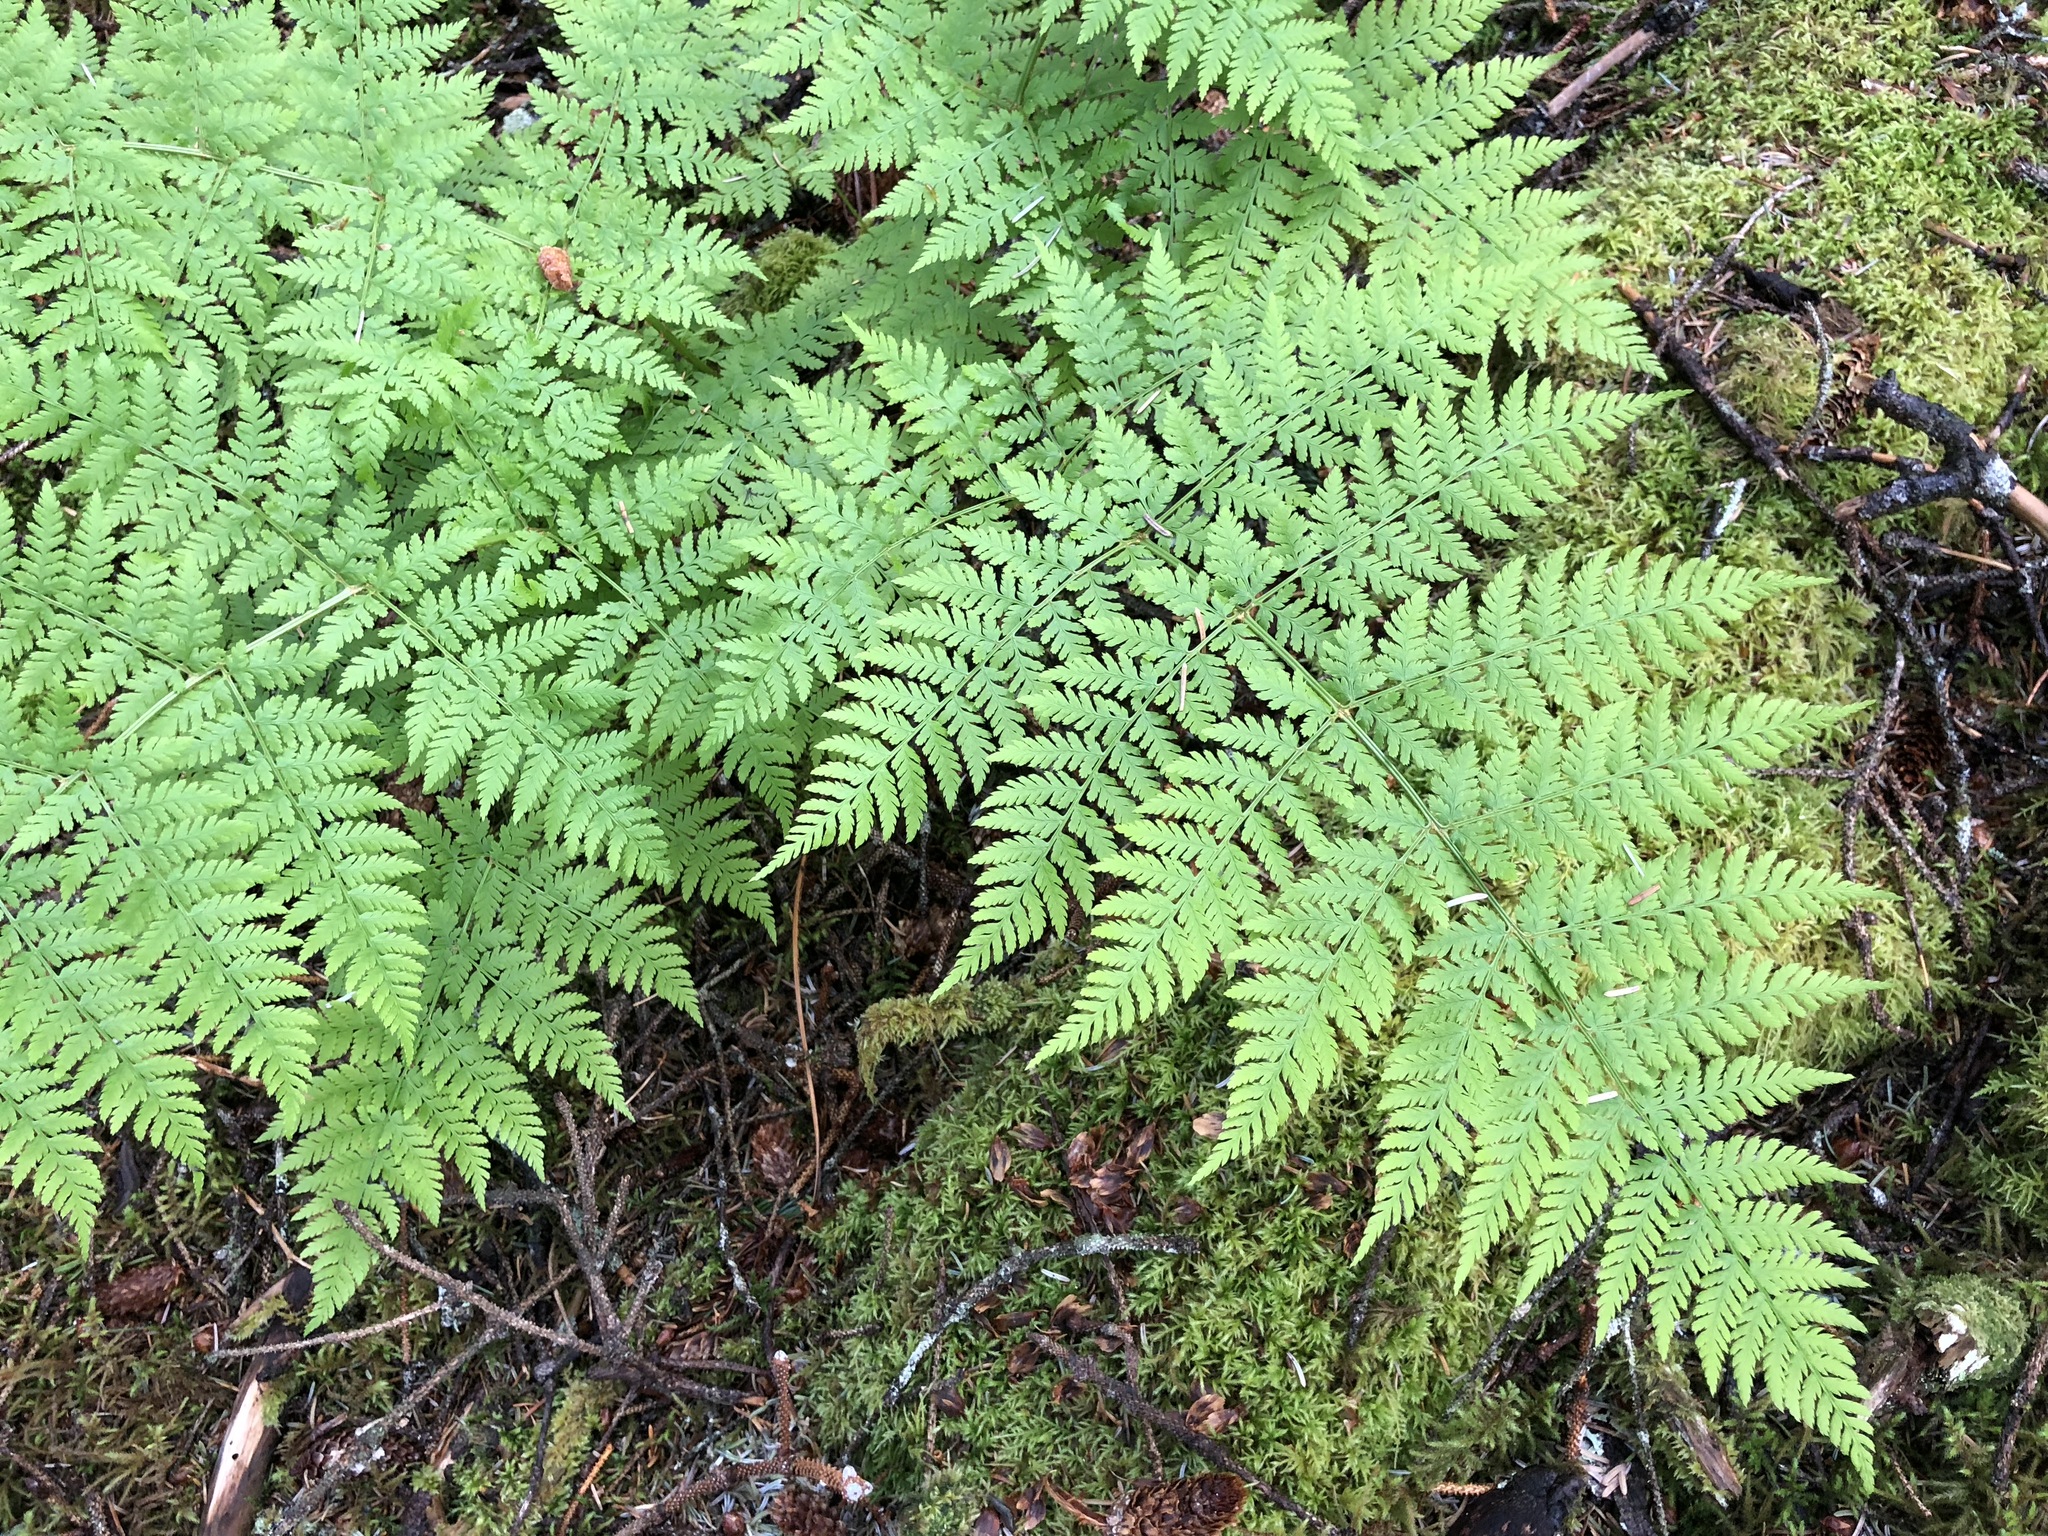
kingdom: Plantae
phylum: Tracheophyta
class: Polypodiopsida
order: Polypodiales
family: Dryopteridaceae
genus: Dryopteris
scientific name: Dryopteris expansa
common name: Northern buckler fern
